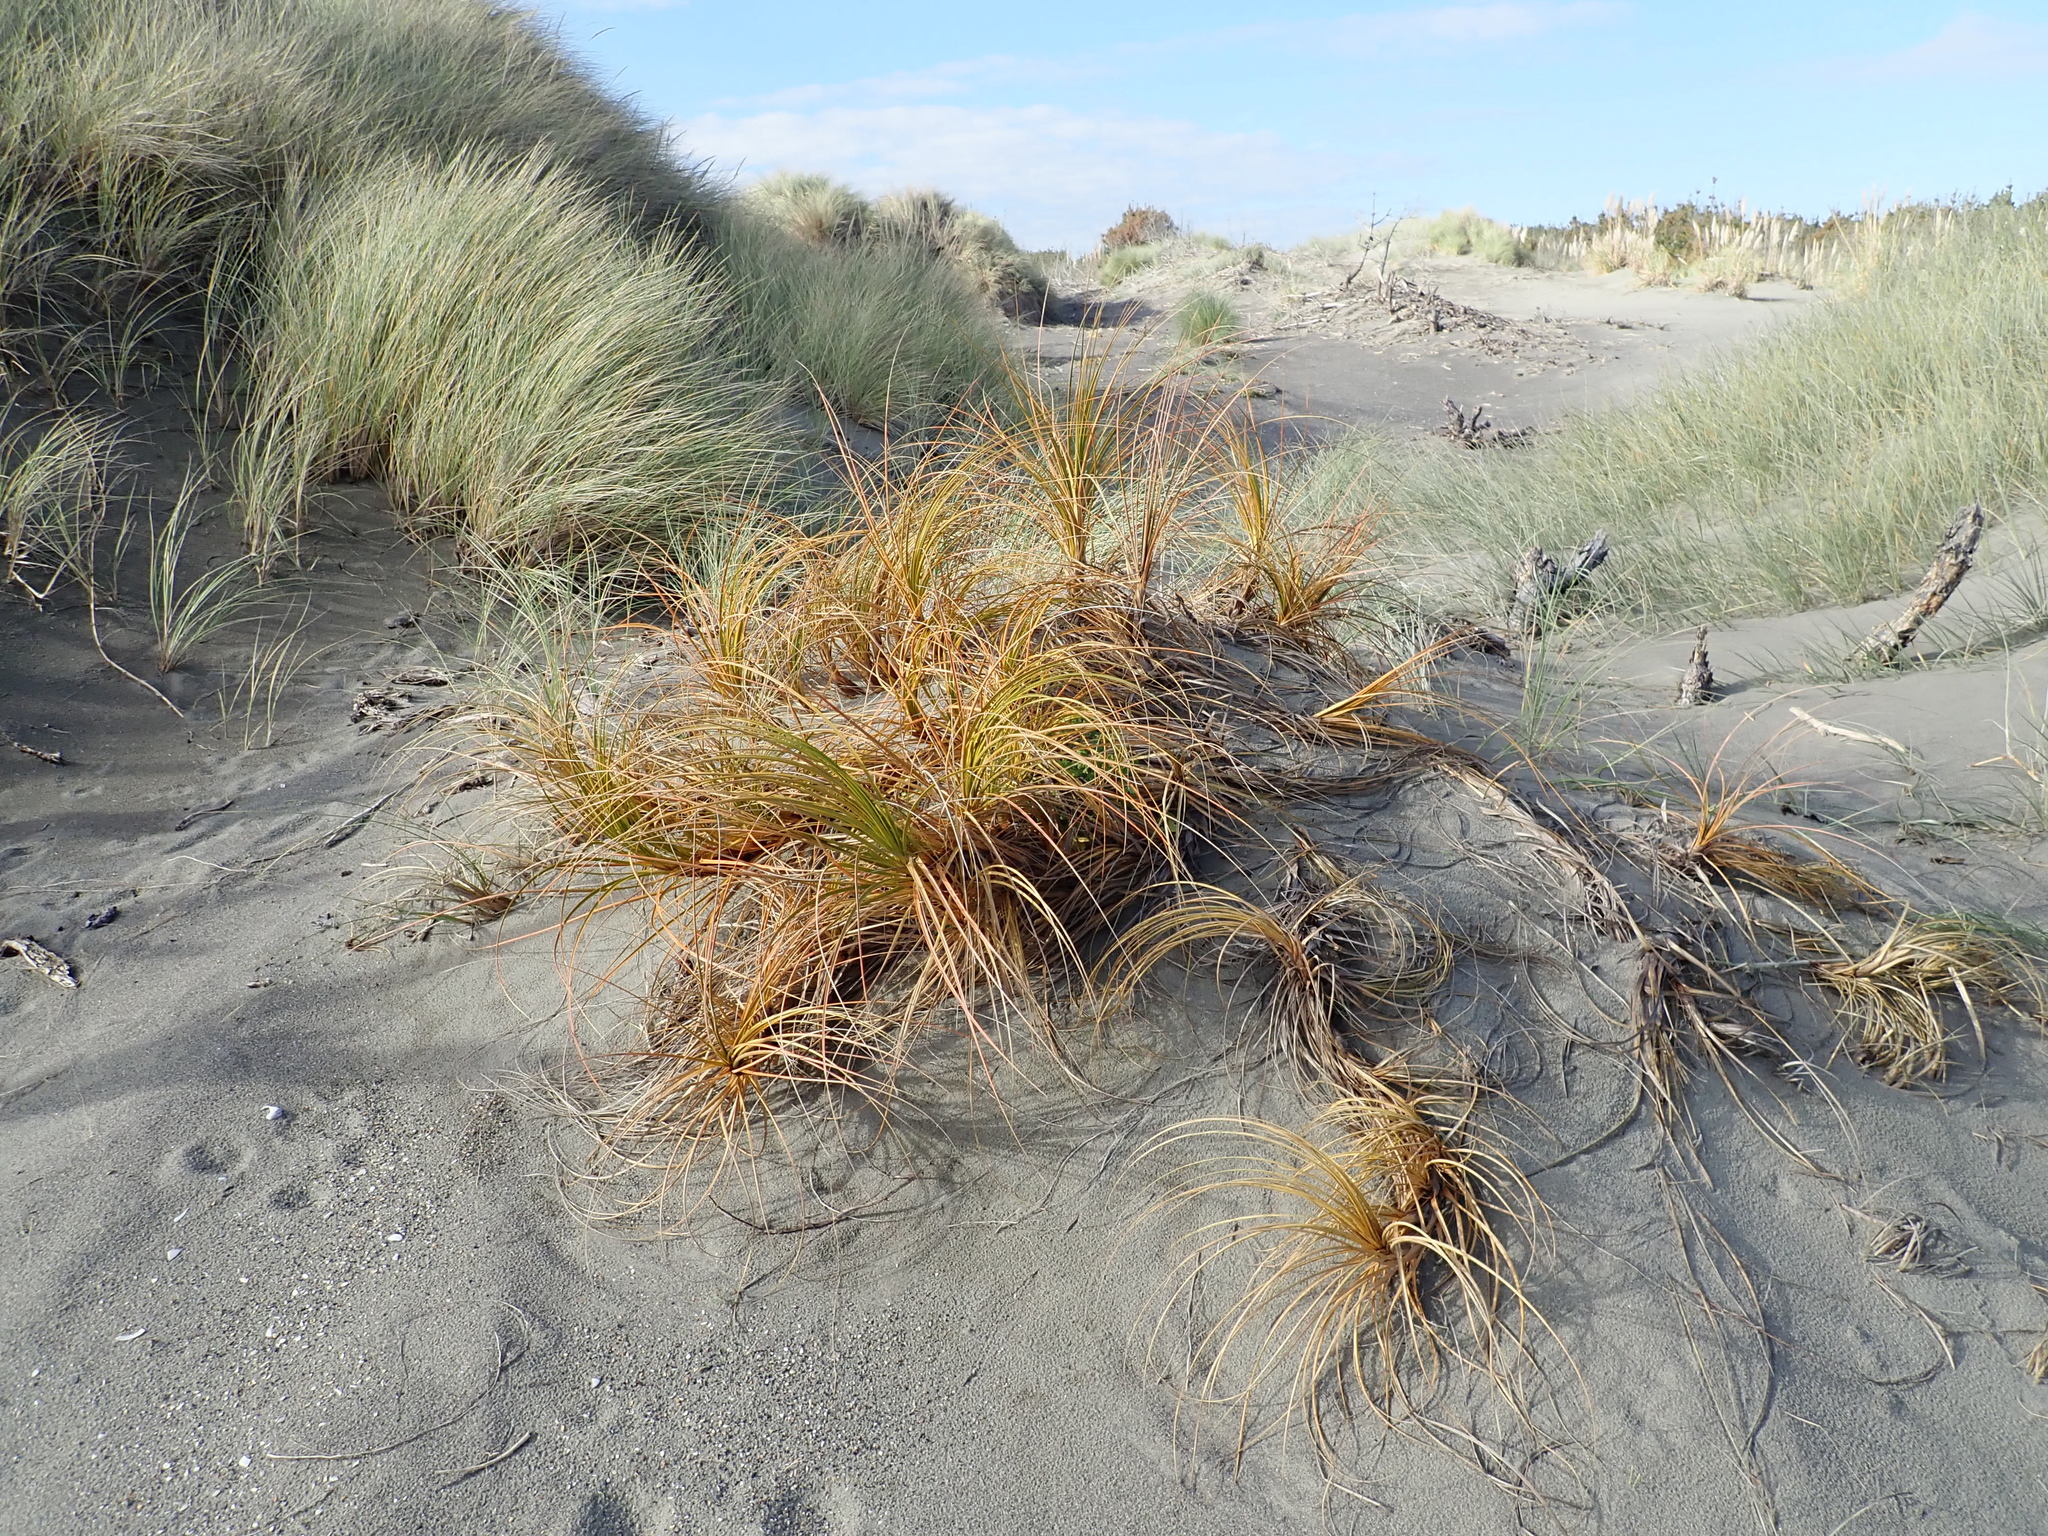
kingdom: Plantae
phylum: Tracheophyta
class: Liliopsida
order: Poales
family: Cyperaceae
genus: Ficinia
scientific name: Ficinia spiralis
